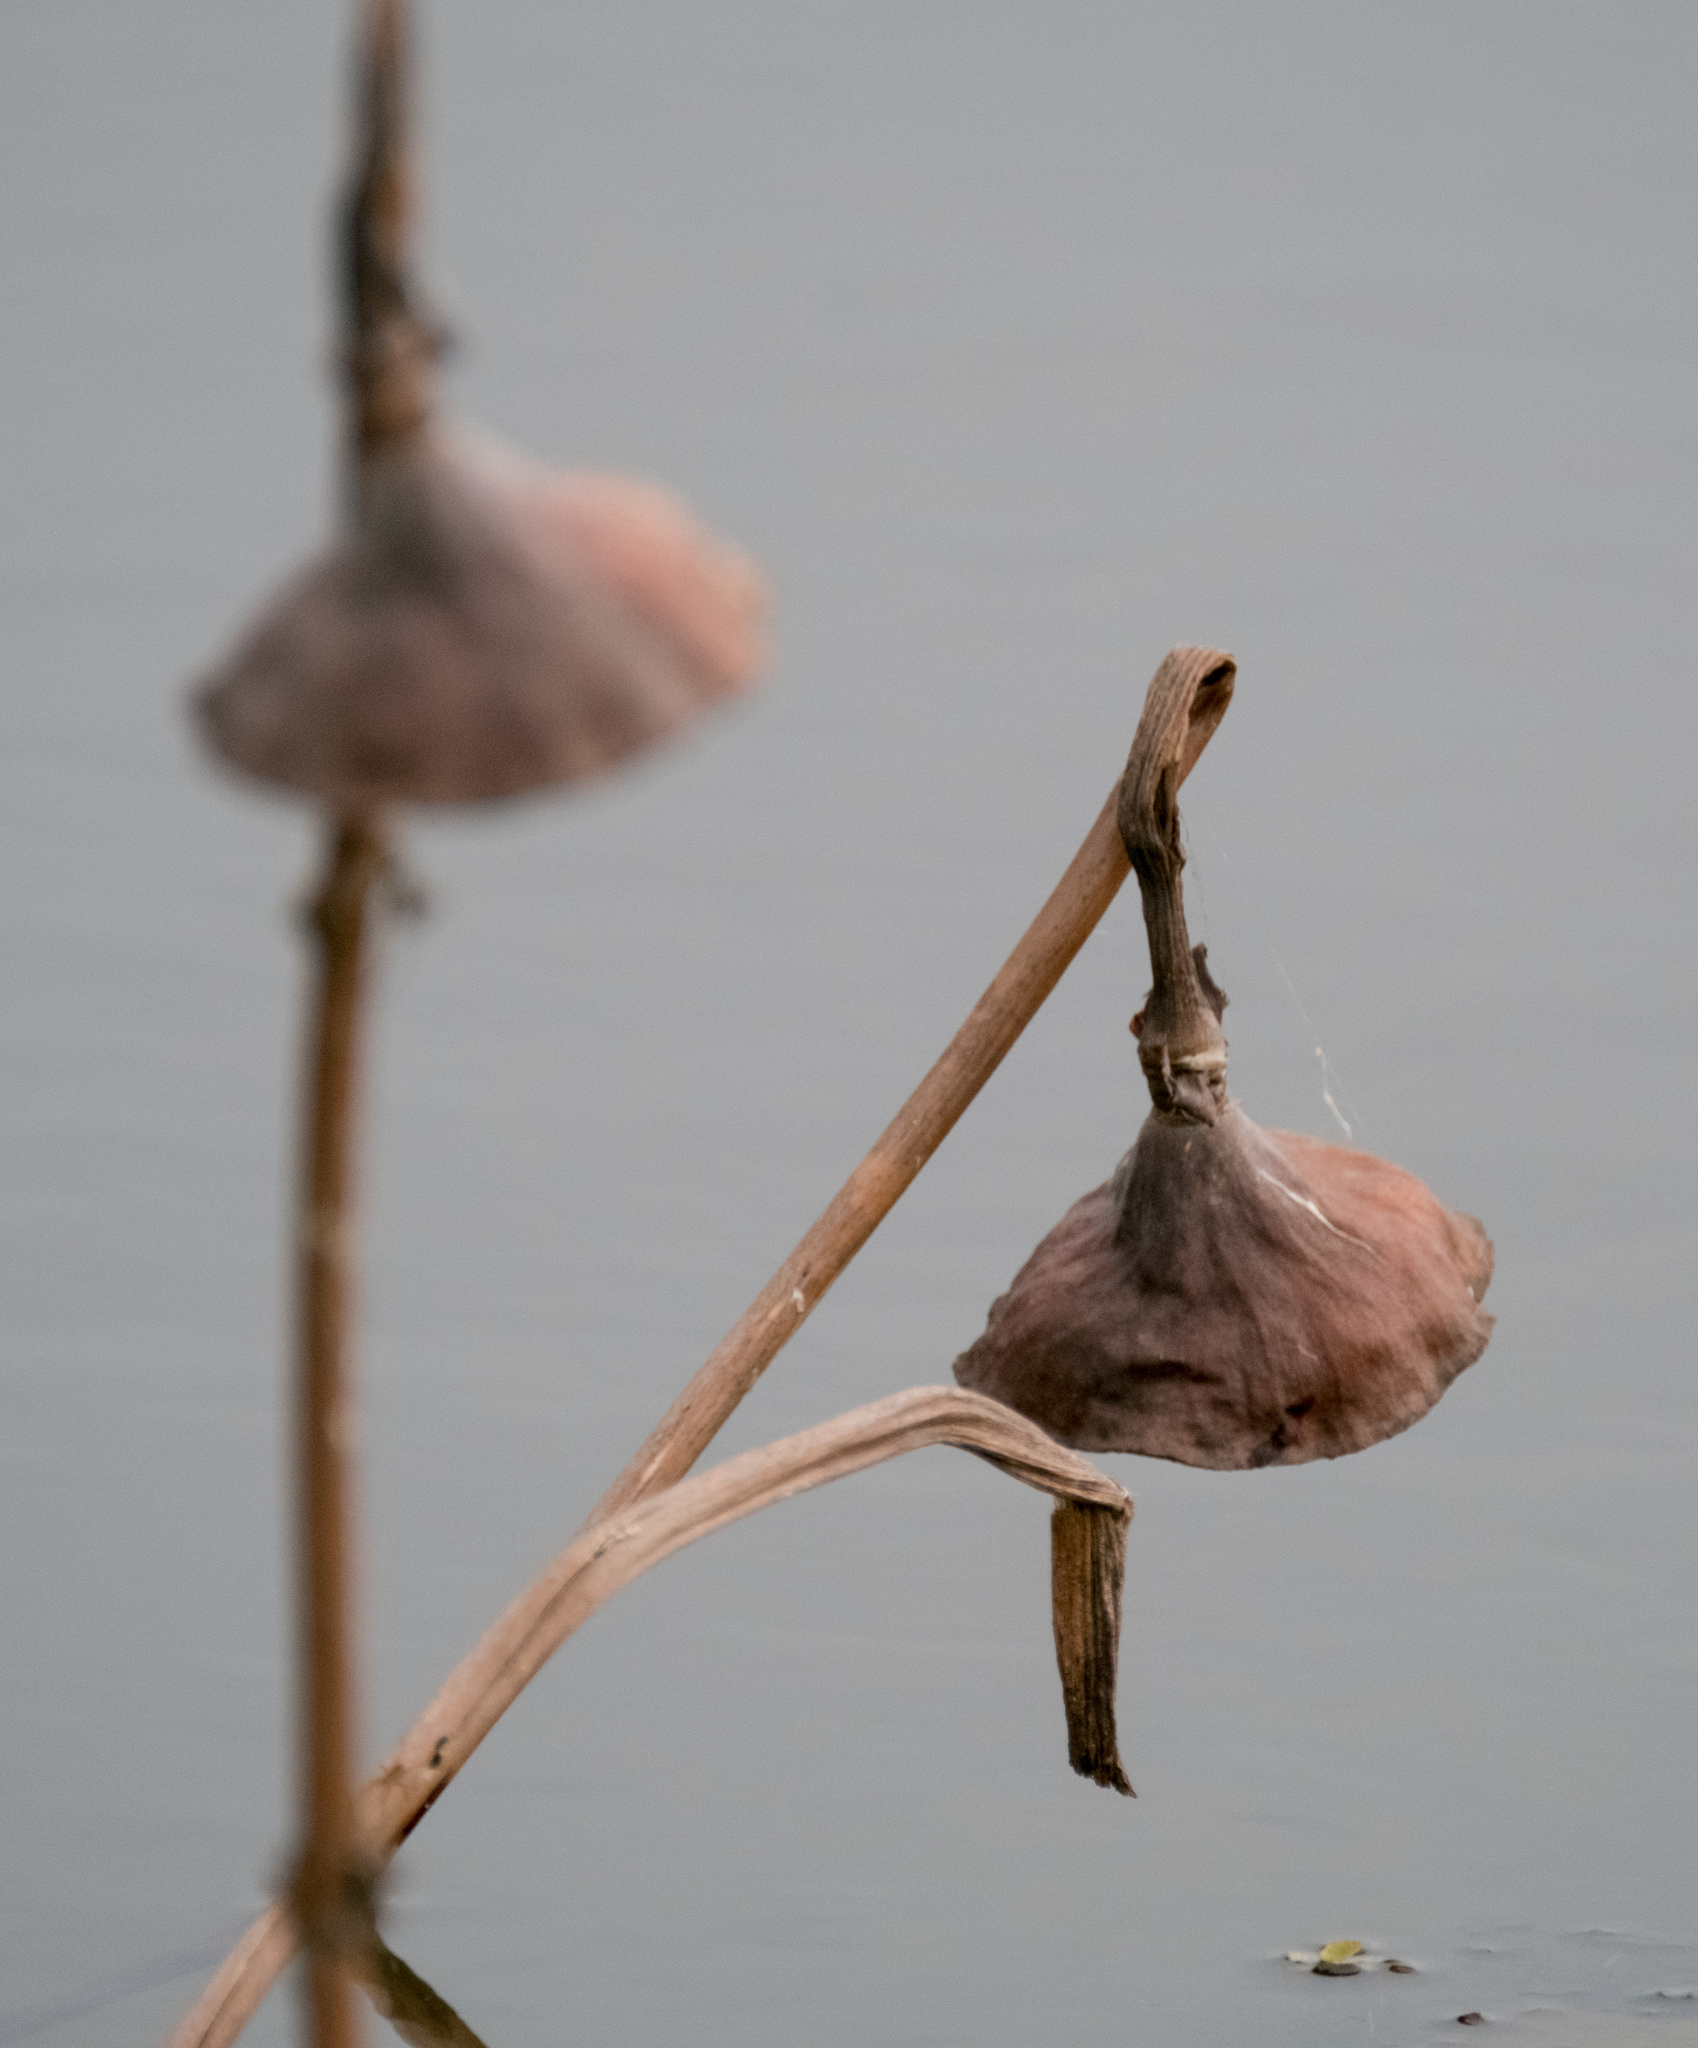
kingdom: Plantae
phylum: Tracheophyta
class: Magnoliopsida
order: Proteales
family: Nelumbonaceae
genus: Nelumbo
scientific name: Nelumbo lutea
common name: American lotus
